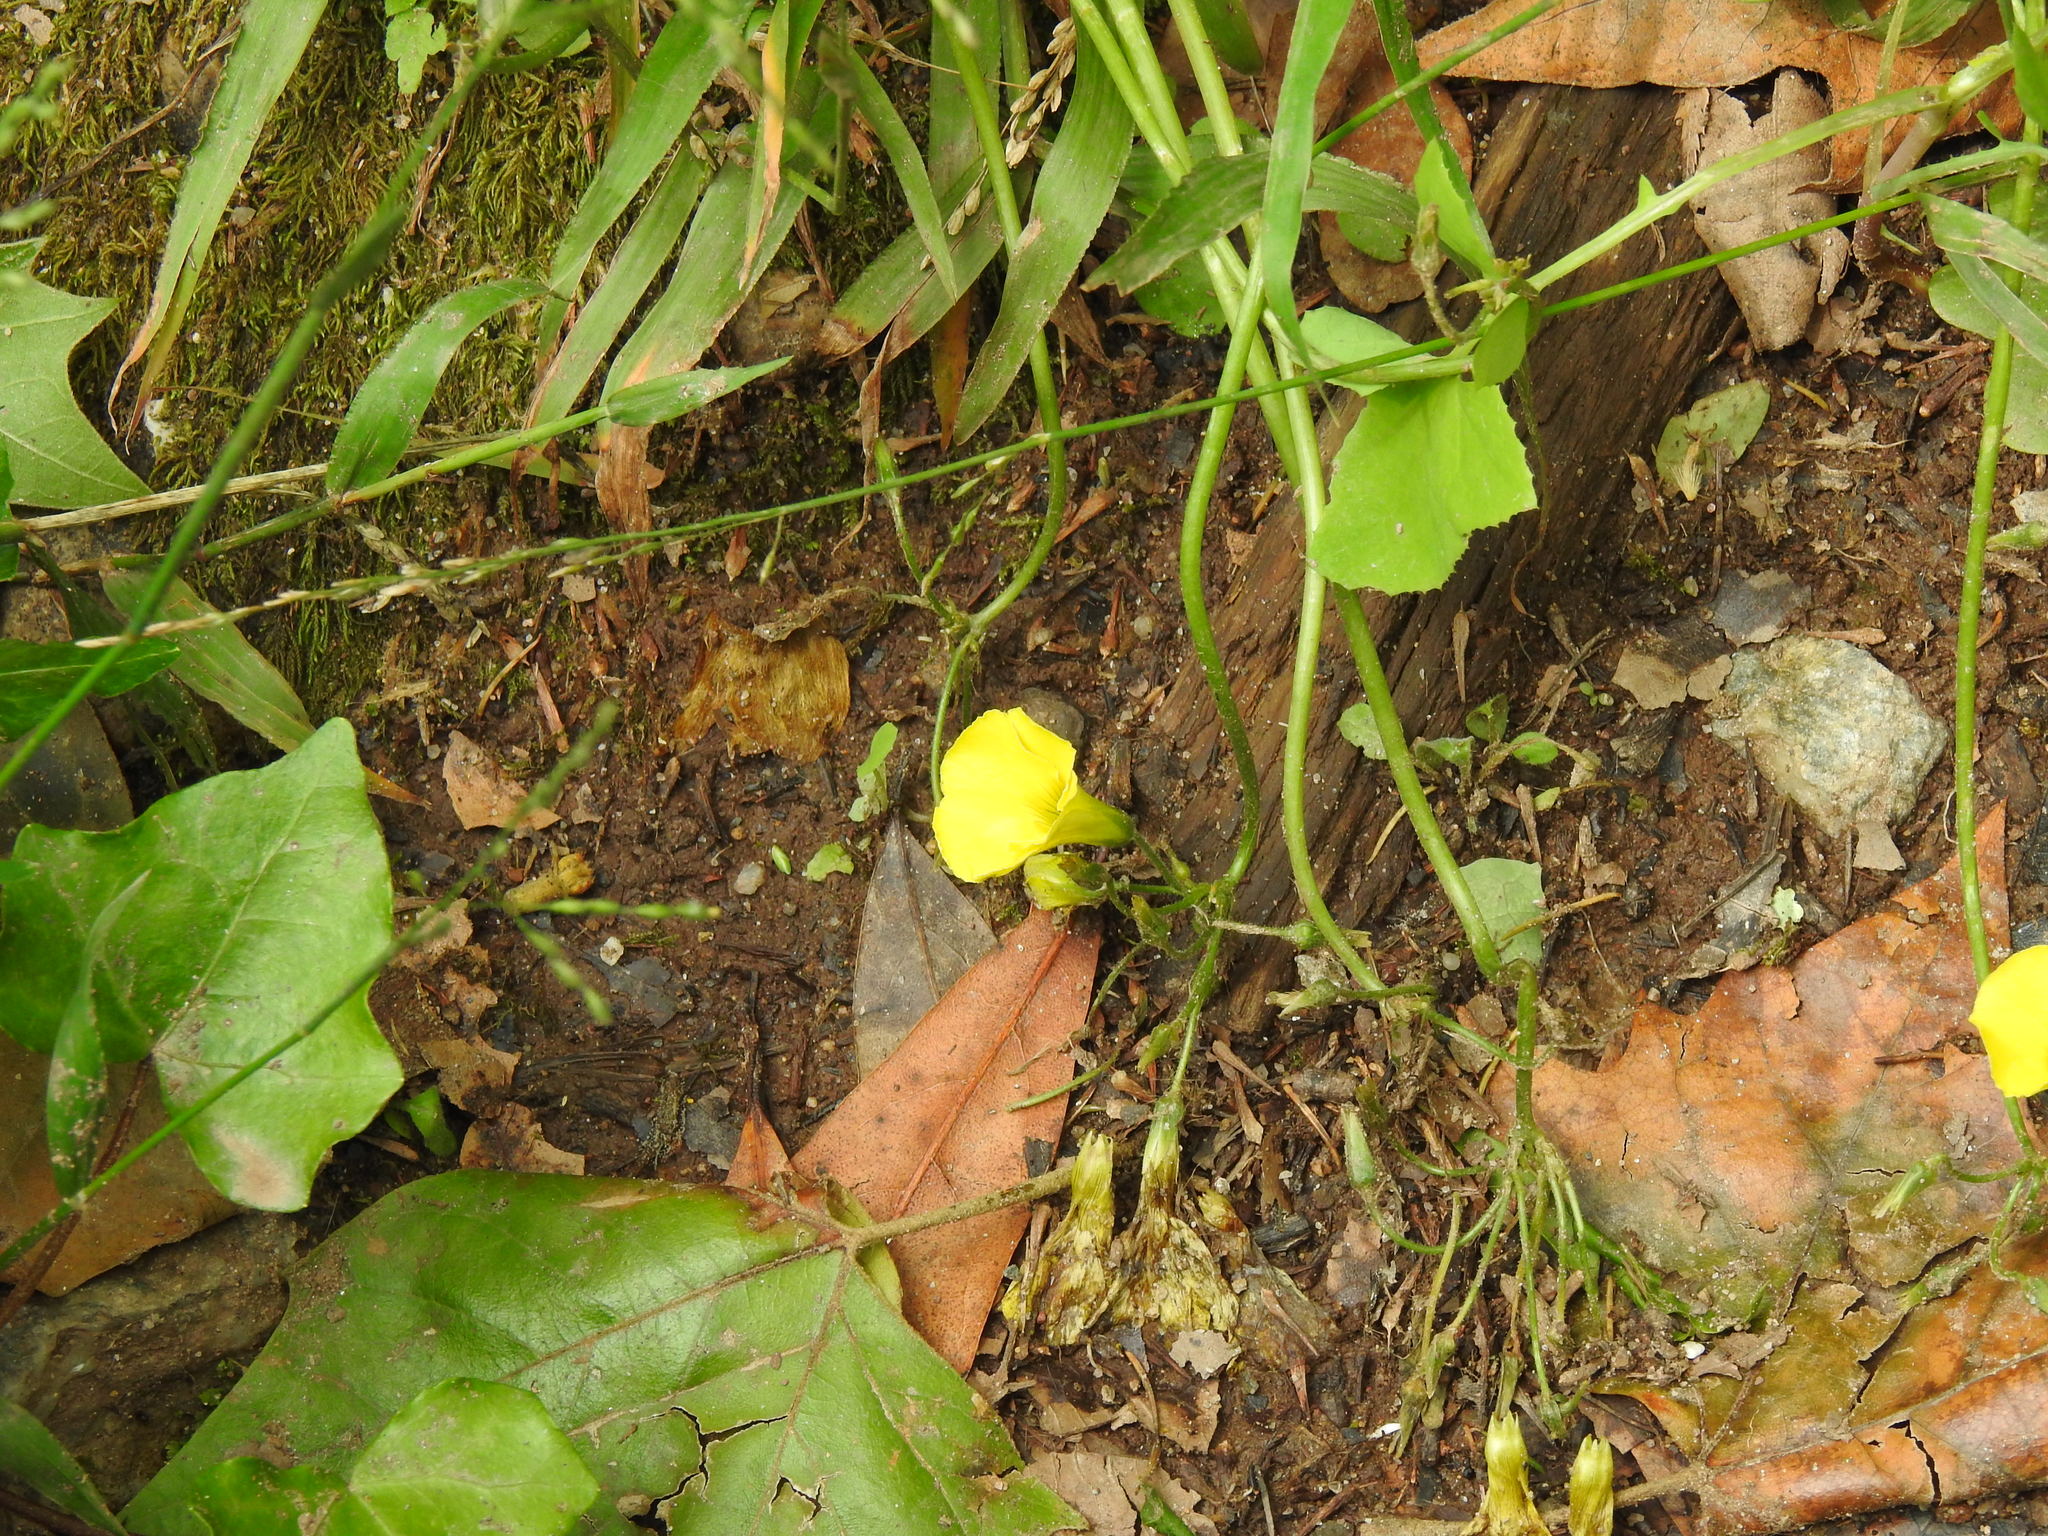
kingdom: Plantae
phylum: Tracheophyta
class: Magnoliopsida
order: Oxalidales
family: Oxalidaceae
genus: Oxalis
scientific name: Oxalis pes-caprae
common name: Bermuda-buttercup
